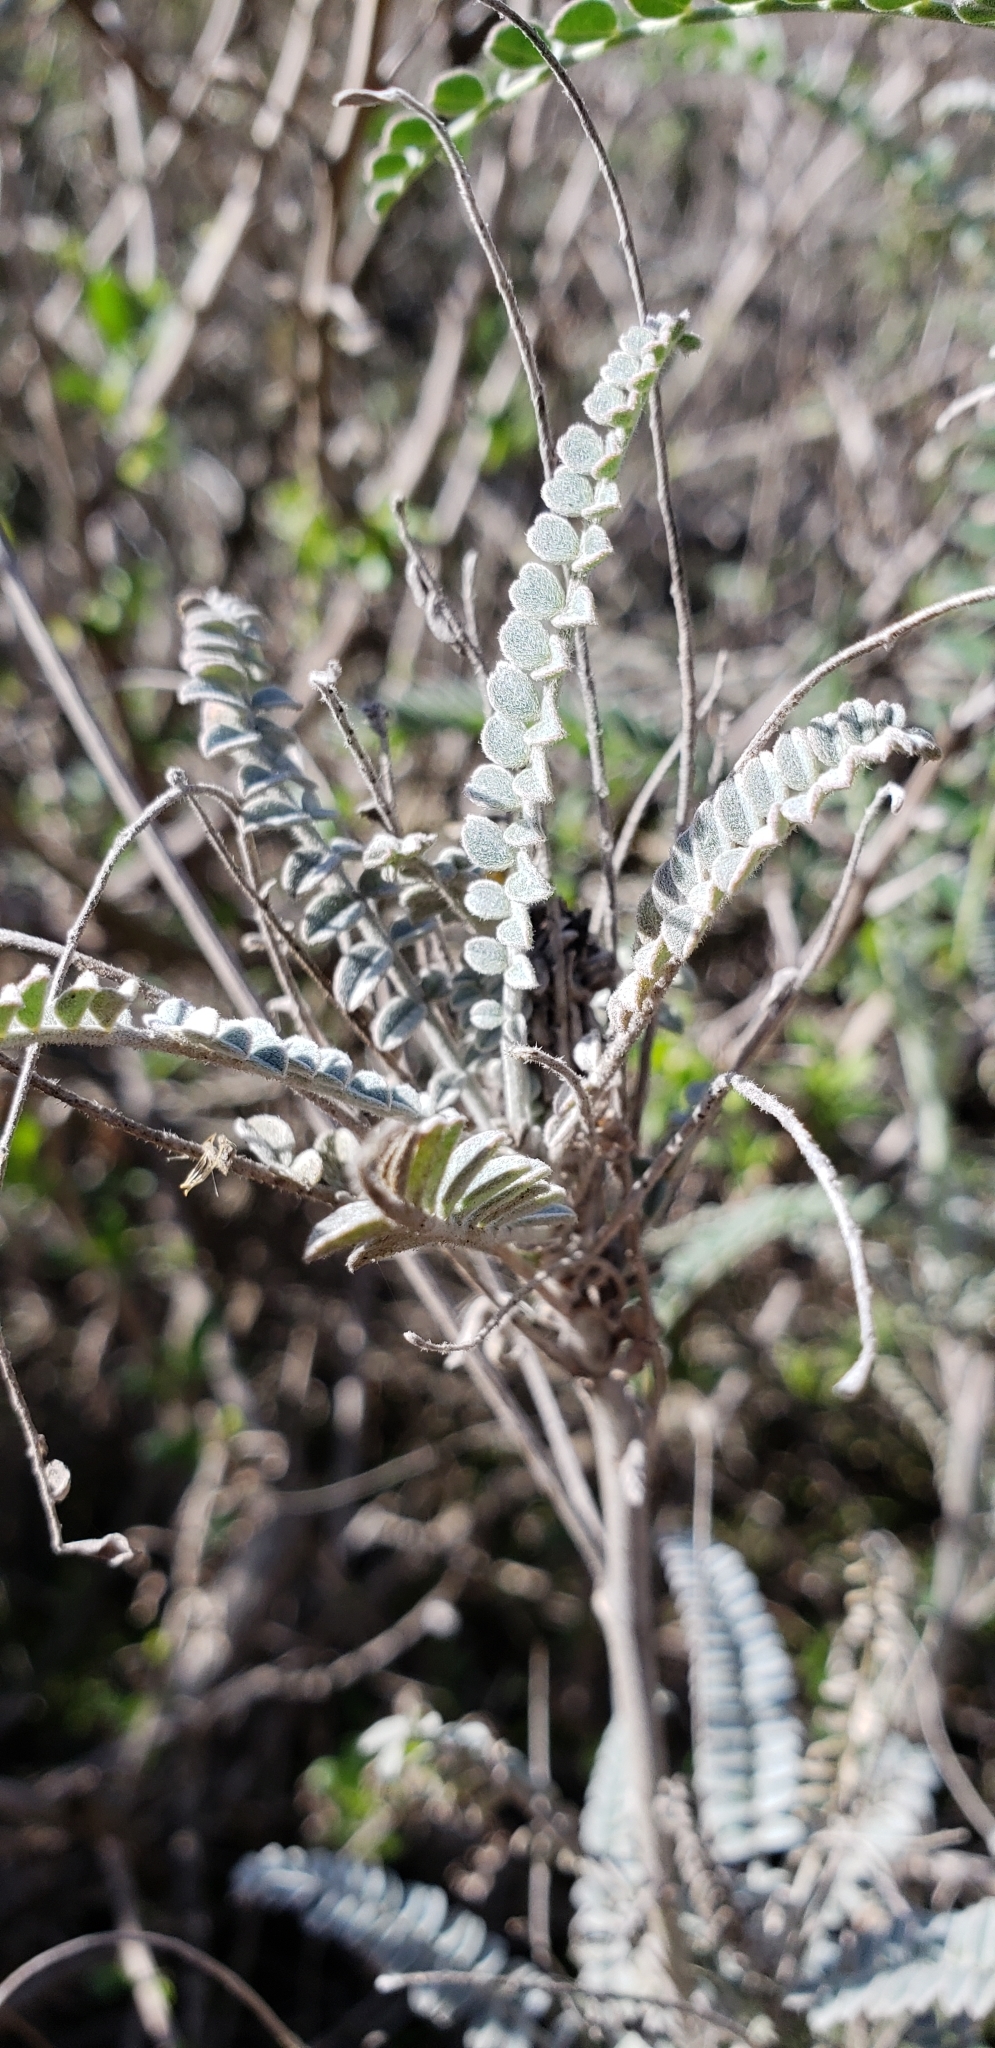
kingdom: Plantae
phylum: Tracheophyta
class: Magnoliopsida
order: Fabales
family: Fabaceae
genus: Astragalus
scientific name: Astragalus trichopodus
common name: Santa barbara milk-vetch
